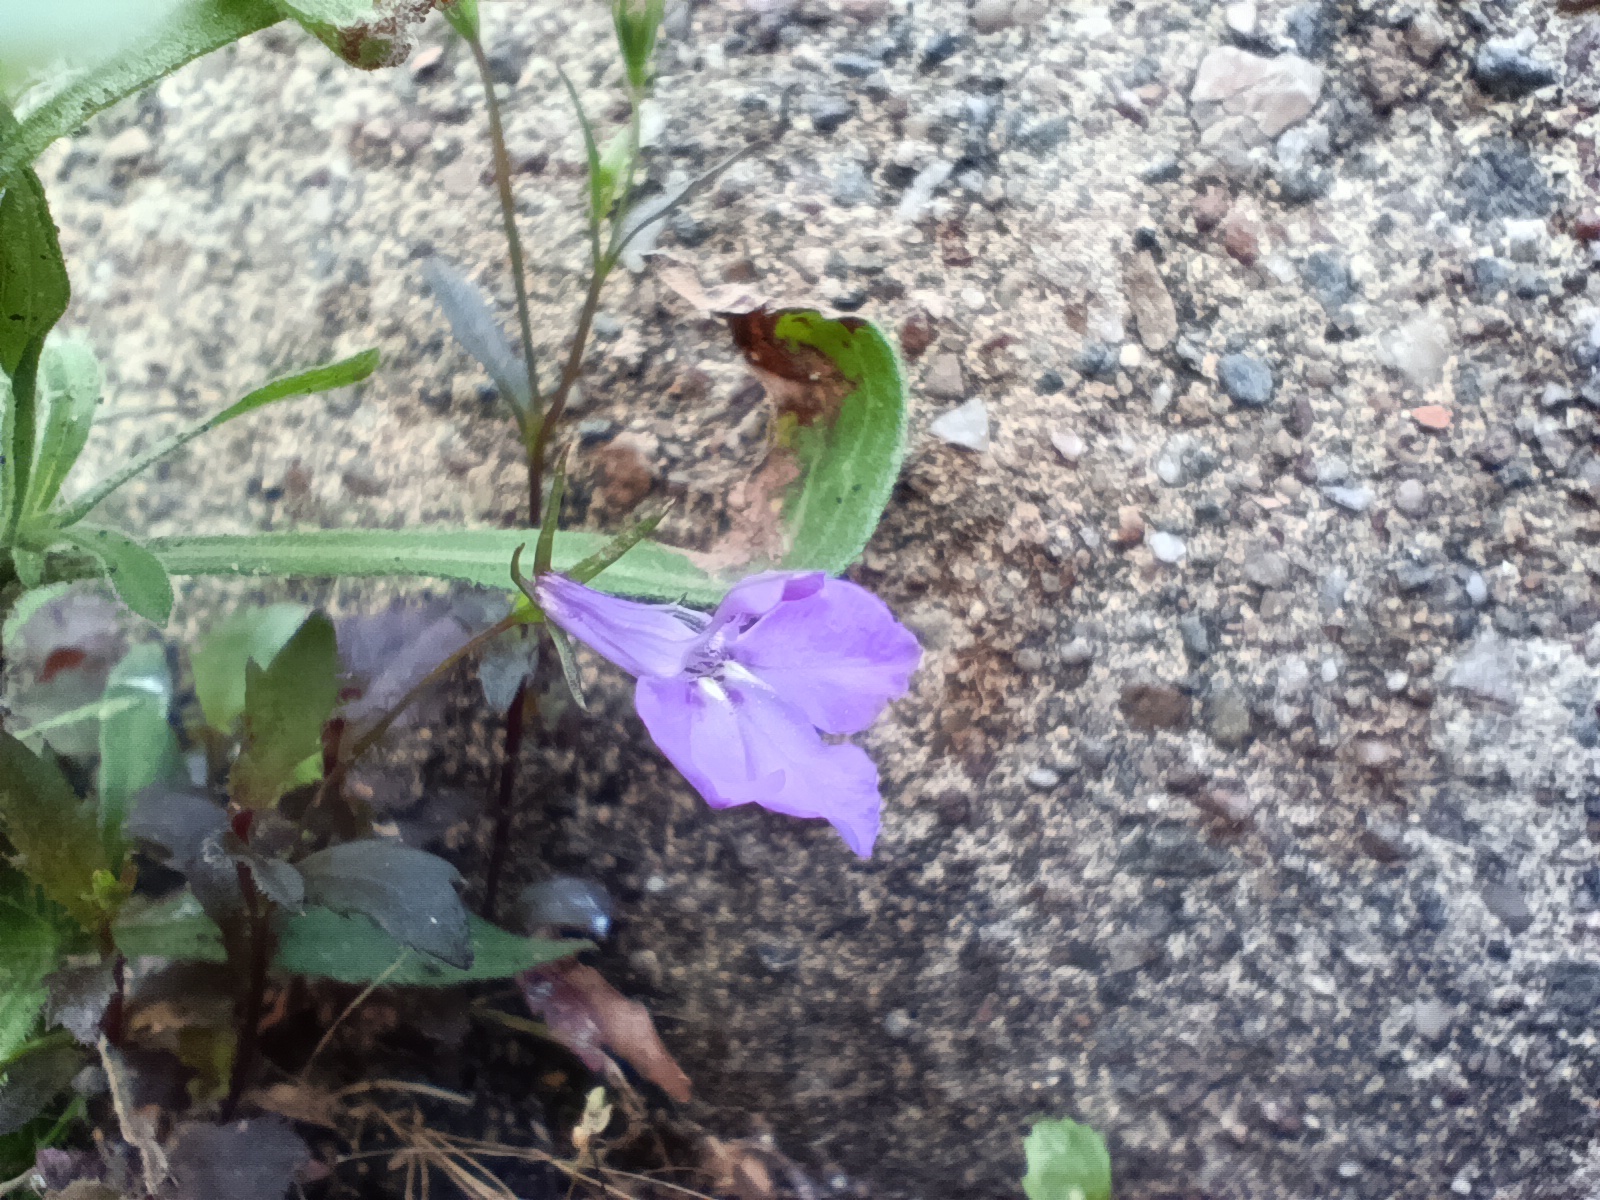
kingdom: Plantae
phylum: Tracheophyta
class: Magnoliopsida
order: Asterales
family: Campanulaceae
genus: Lobelia
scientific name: Lobelia erinus
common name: Edging lobelia
